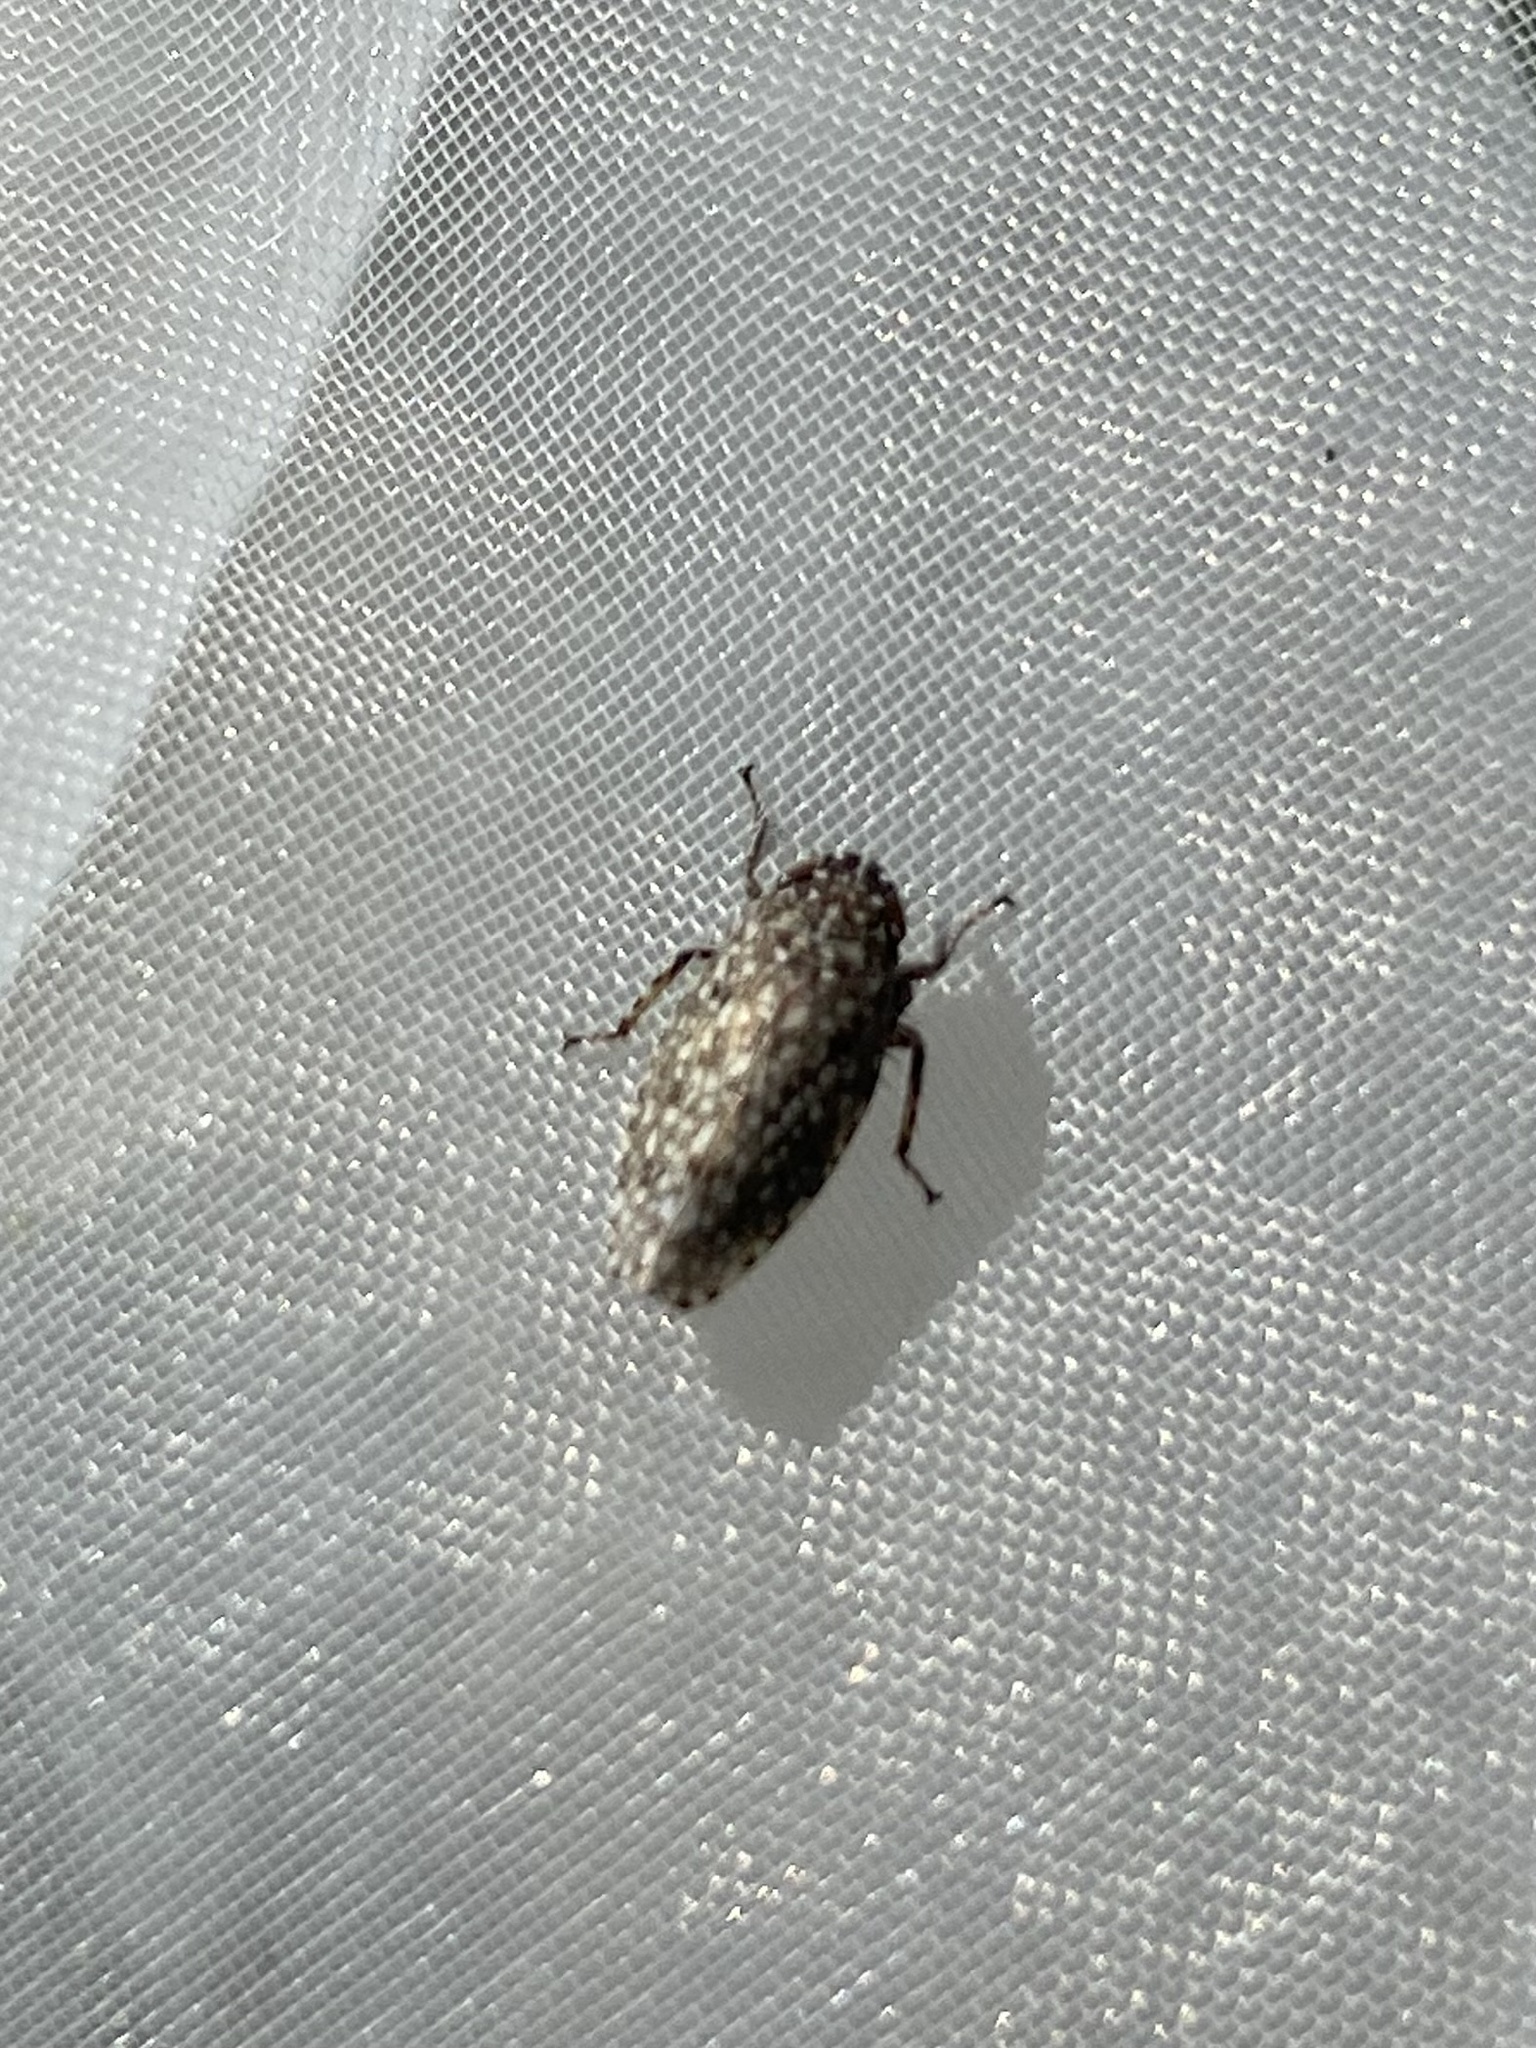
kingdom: Animalia
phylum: Arthropoda
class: Insecta
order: Hemiptera
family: Cicadellidae
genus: Texananus
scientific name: Texananus
